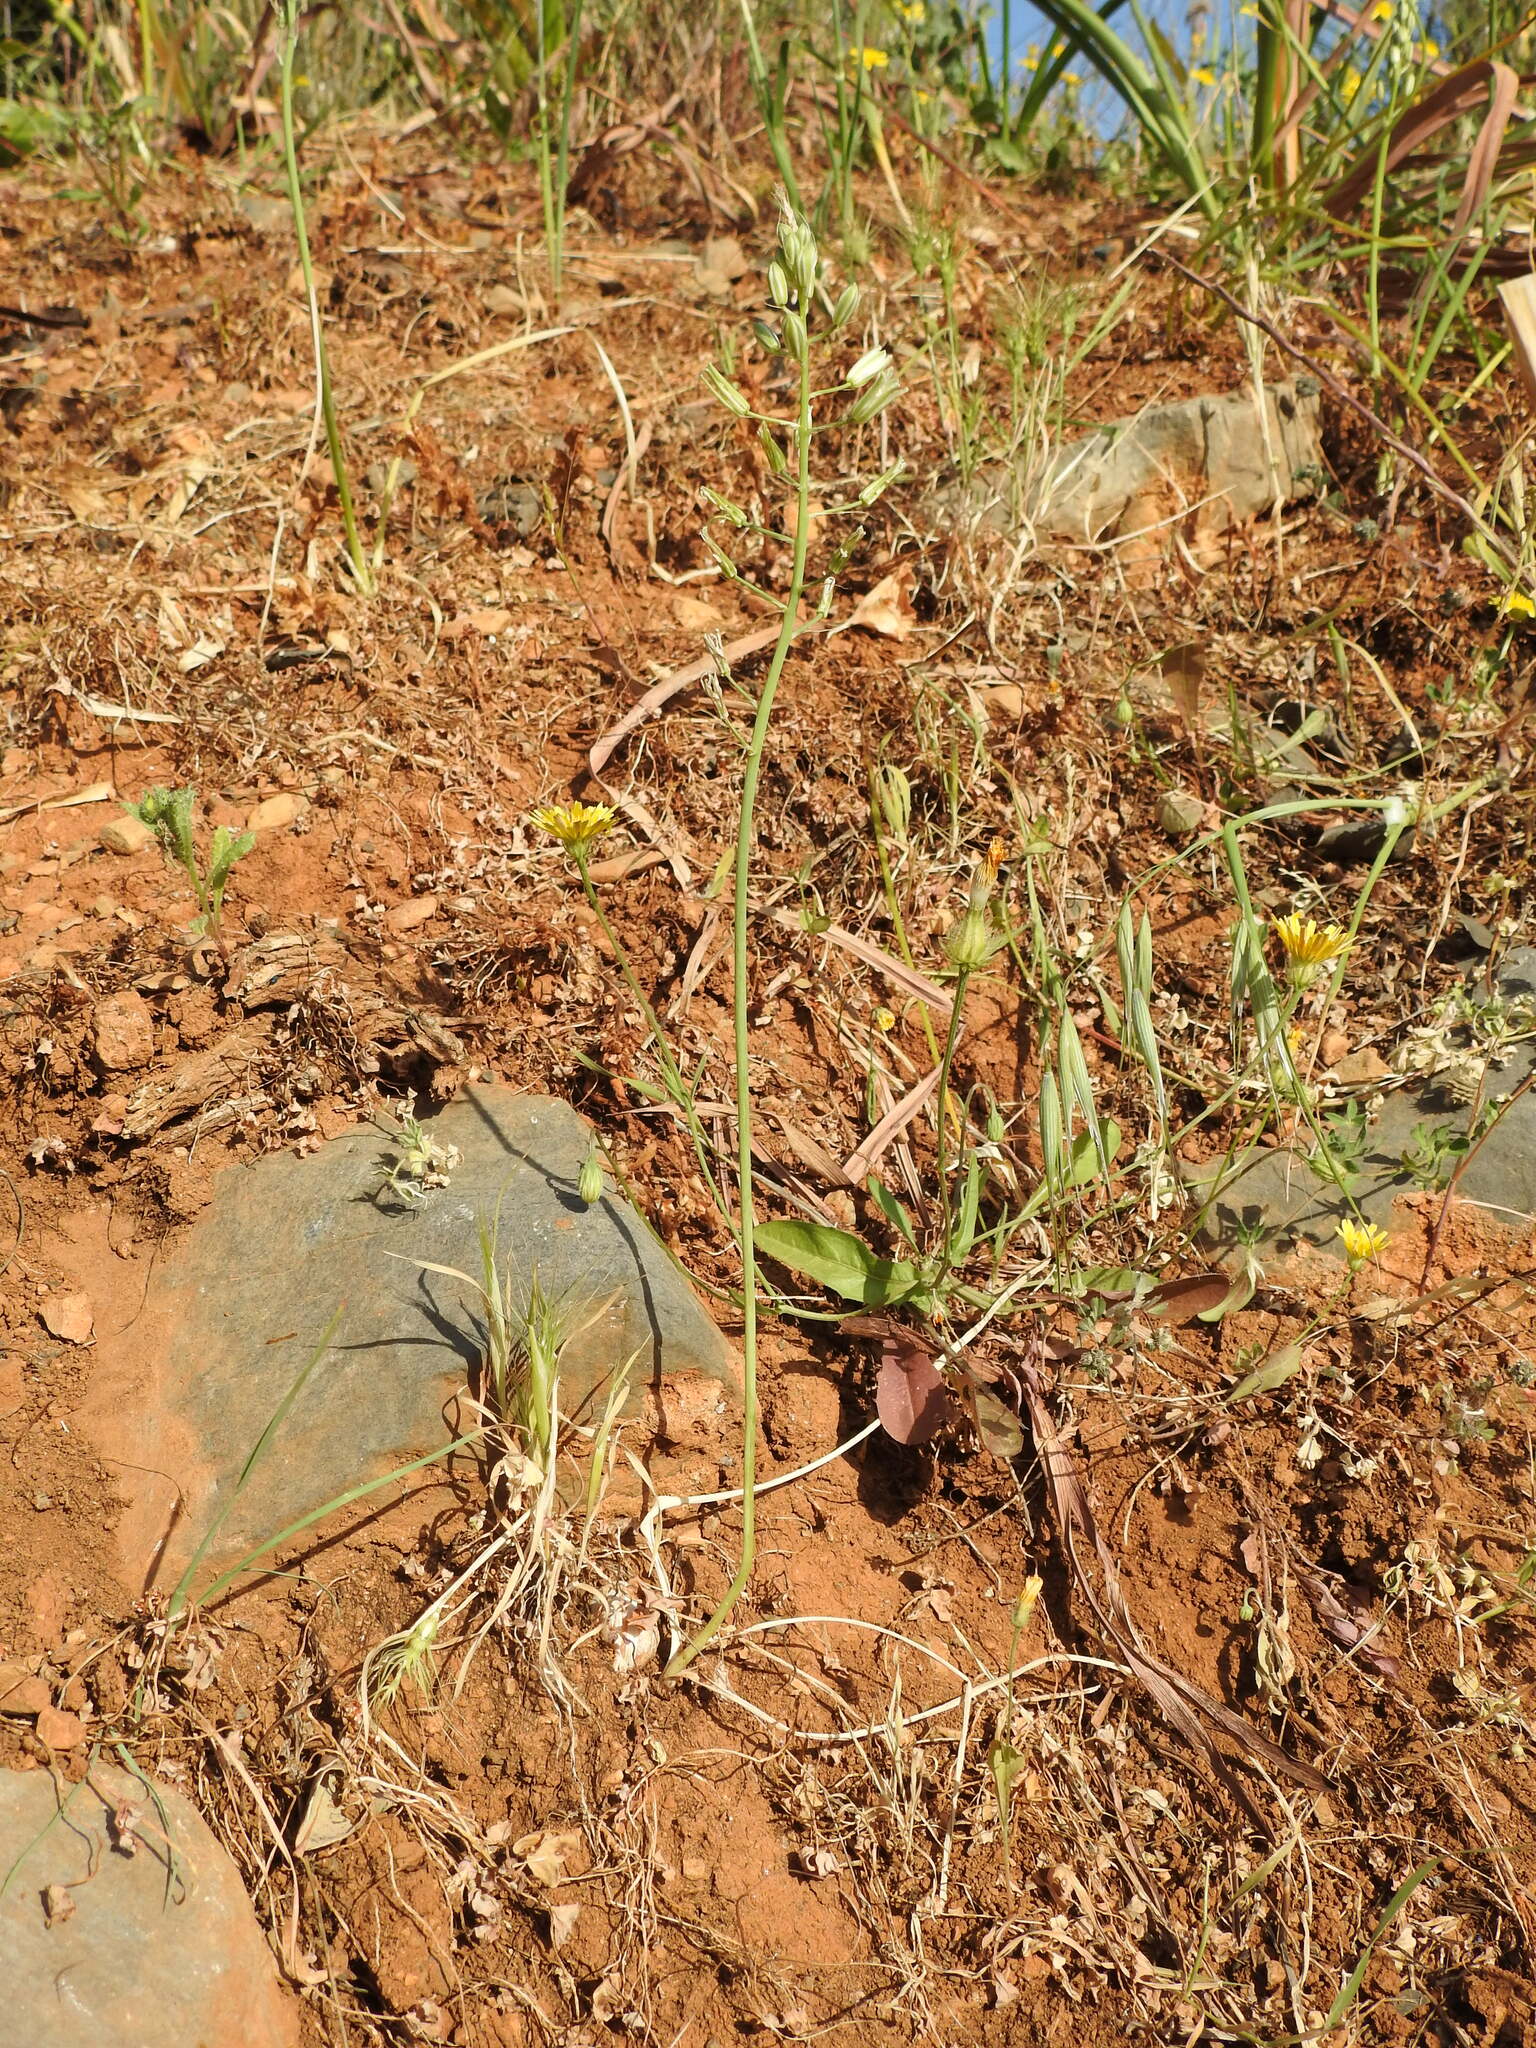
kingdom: Plantae
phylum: Tracheophyta
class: Liliopsida
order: Asparagales
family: Asparagaceae
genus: Ornithogalum
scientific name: Ornithogalum narbonense
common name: Bath-asparagus
